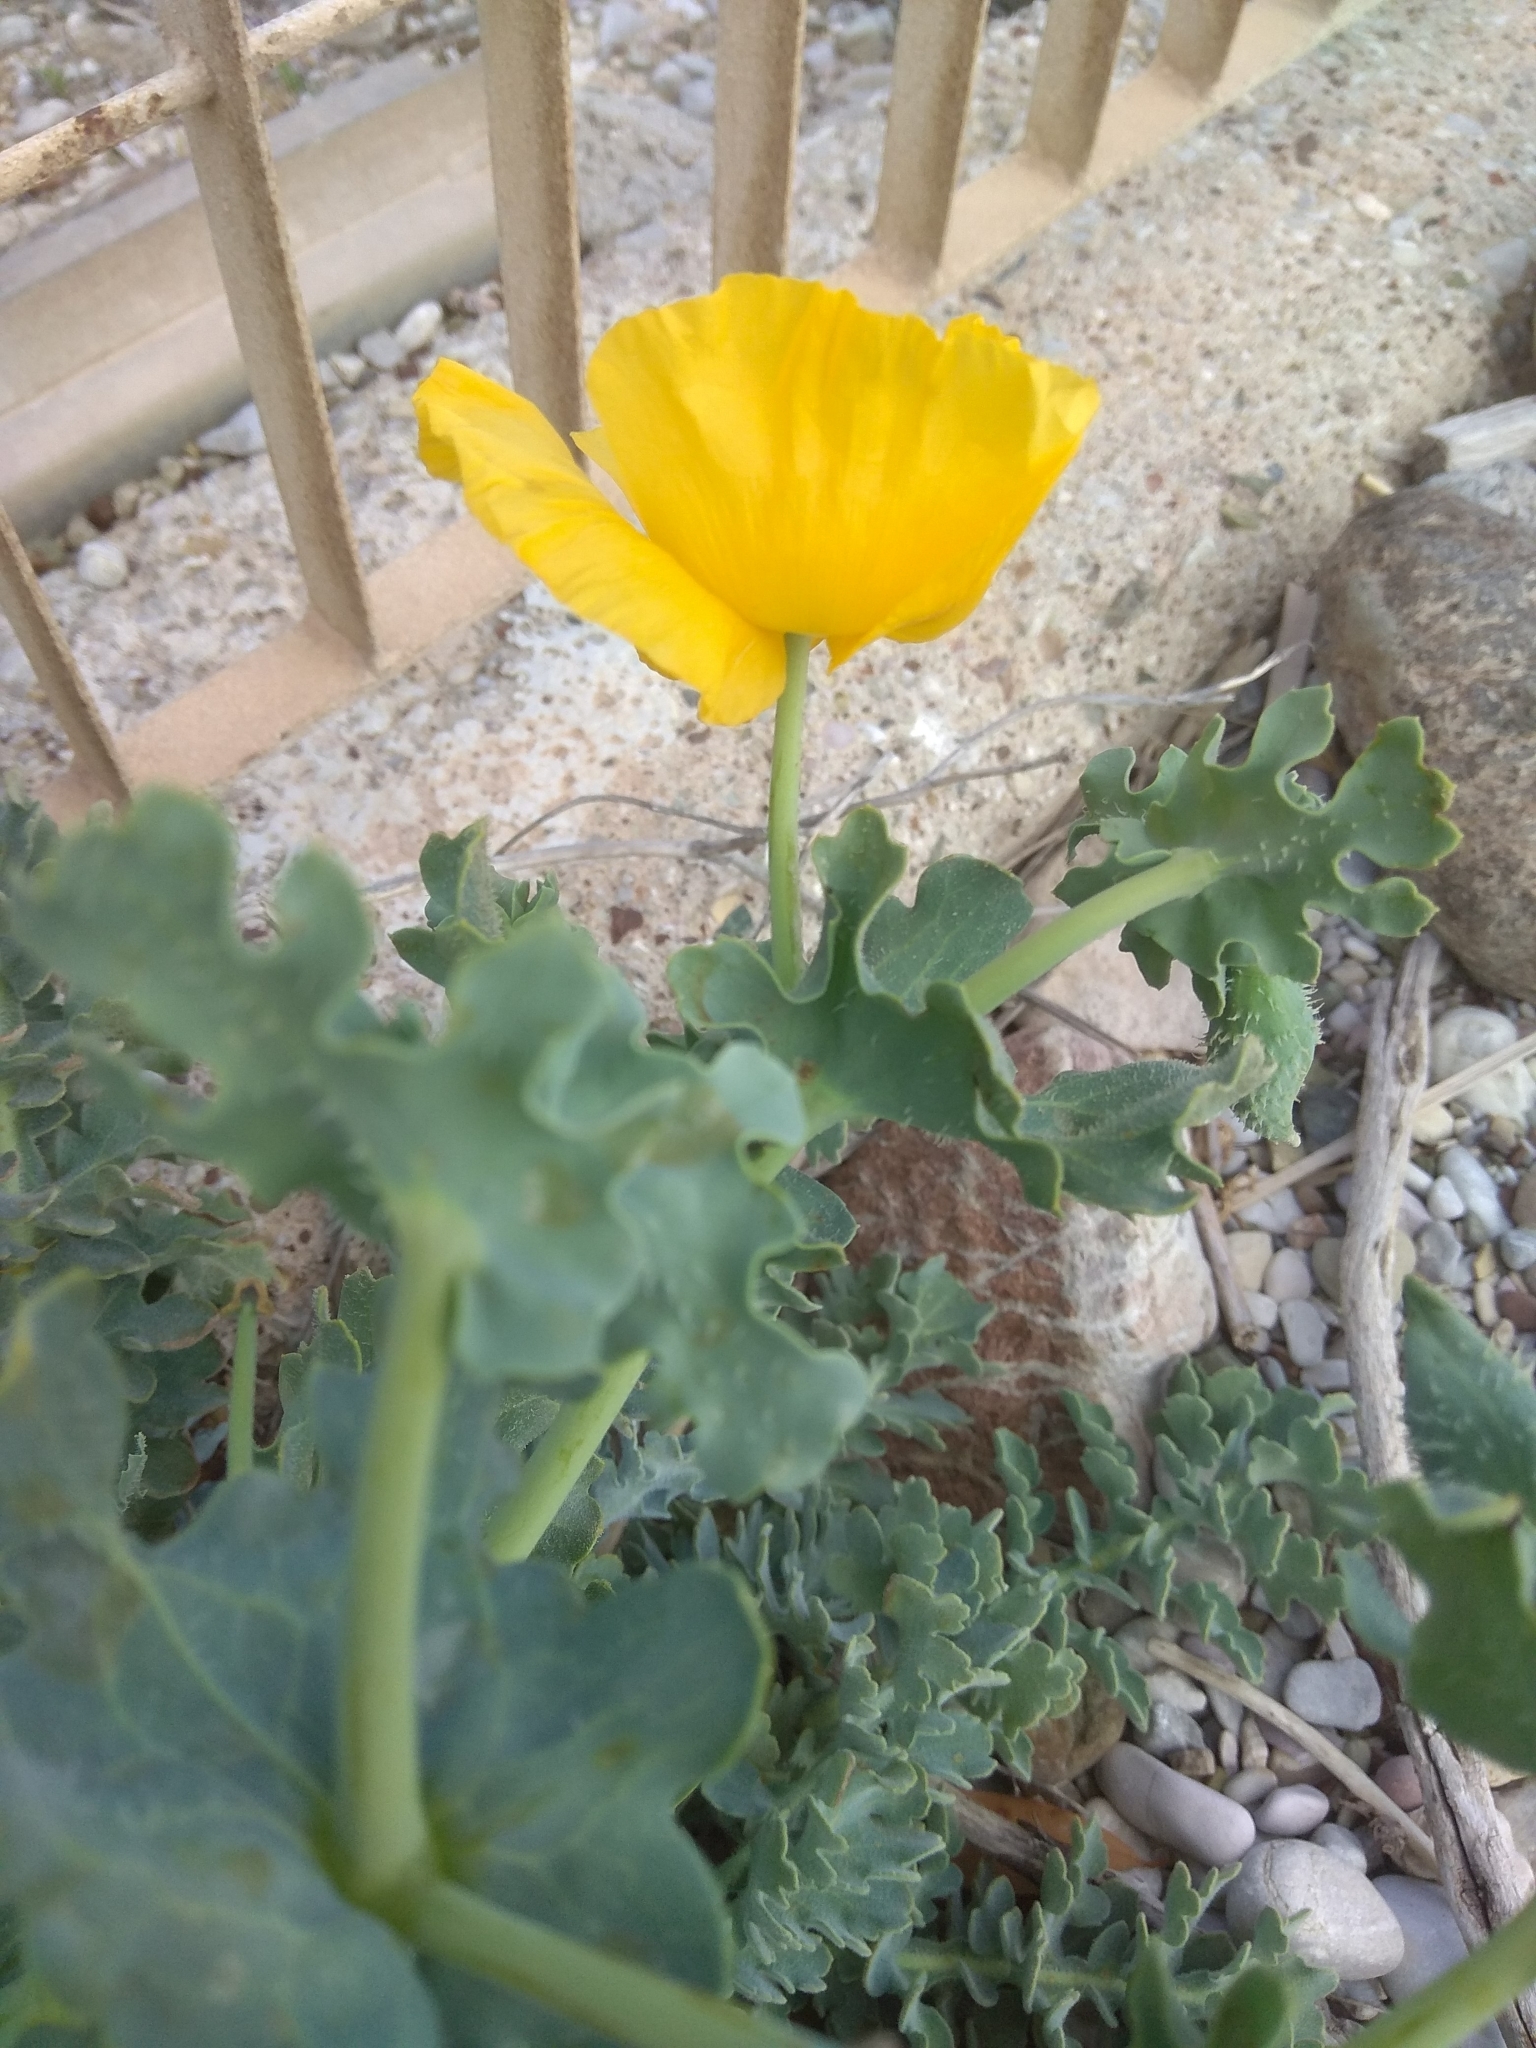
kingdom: Plantae
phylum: Tracheophyta
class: Magnoliopsida
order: Ranunculales
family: Papaveraceae
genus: Glaucium
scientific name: Glaucium flavum
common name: Yellow horned-poppy
